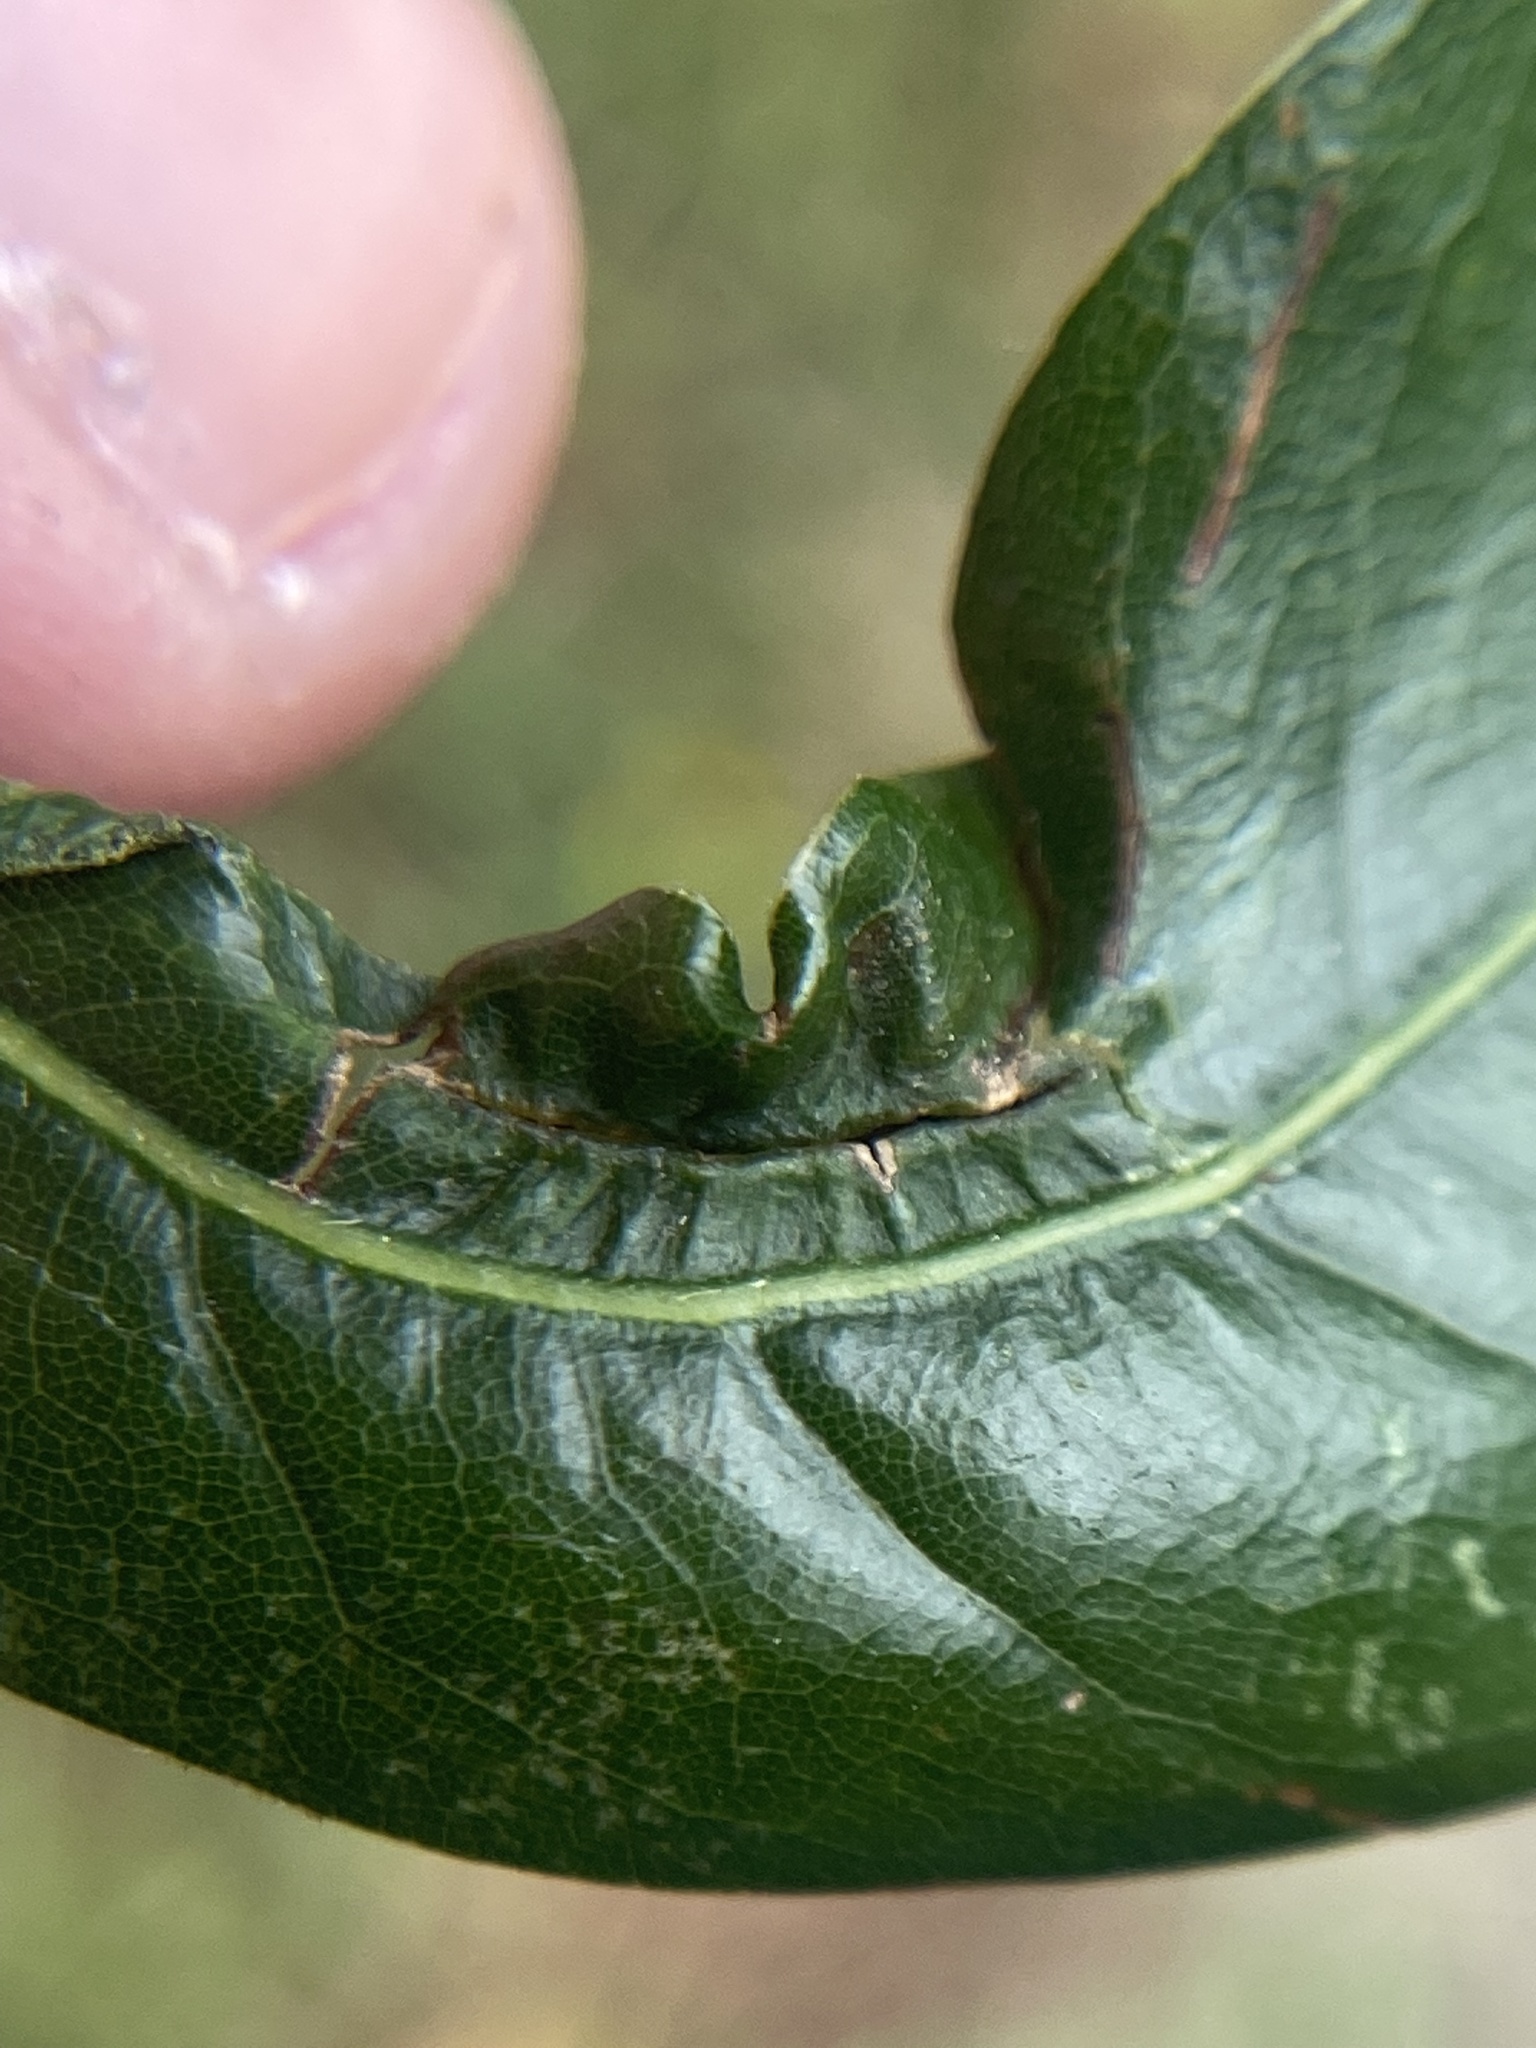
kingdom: Animalia
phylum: Arthropoda
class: Insecta
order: Diptera
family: Cecidomyiidae
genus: Macrodiplosis
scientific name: Macrodiplosis majalis
